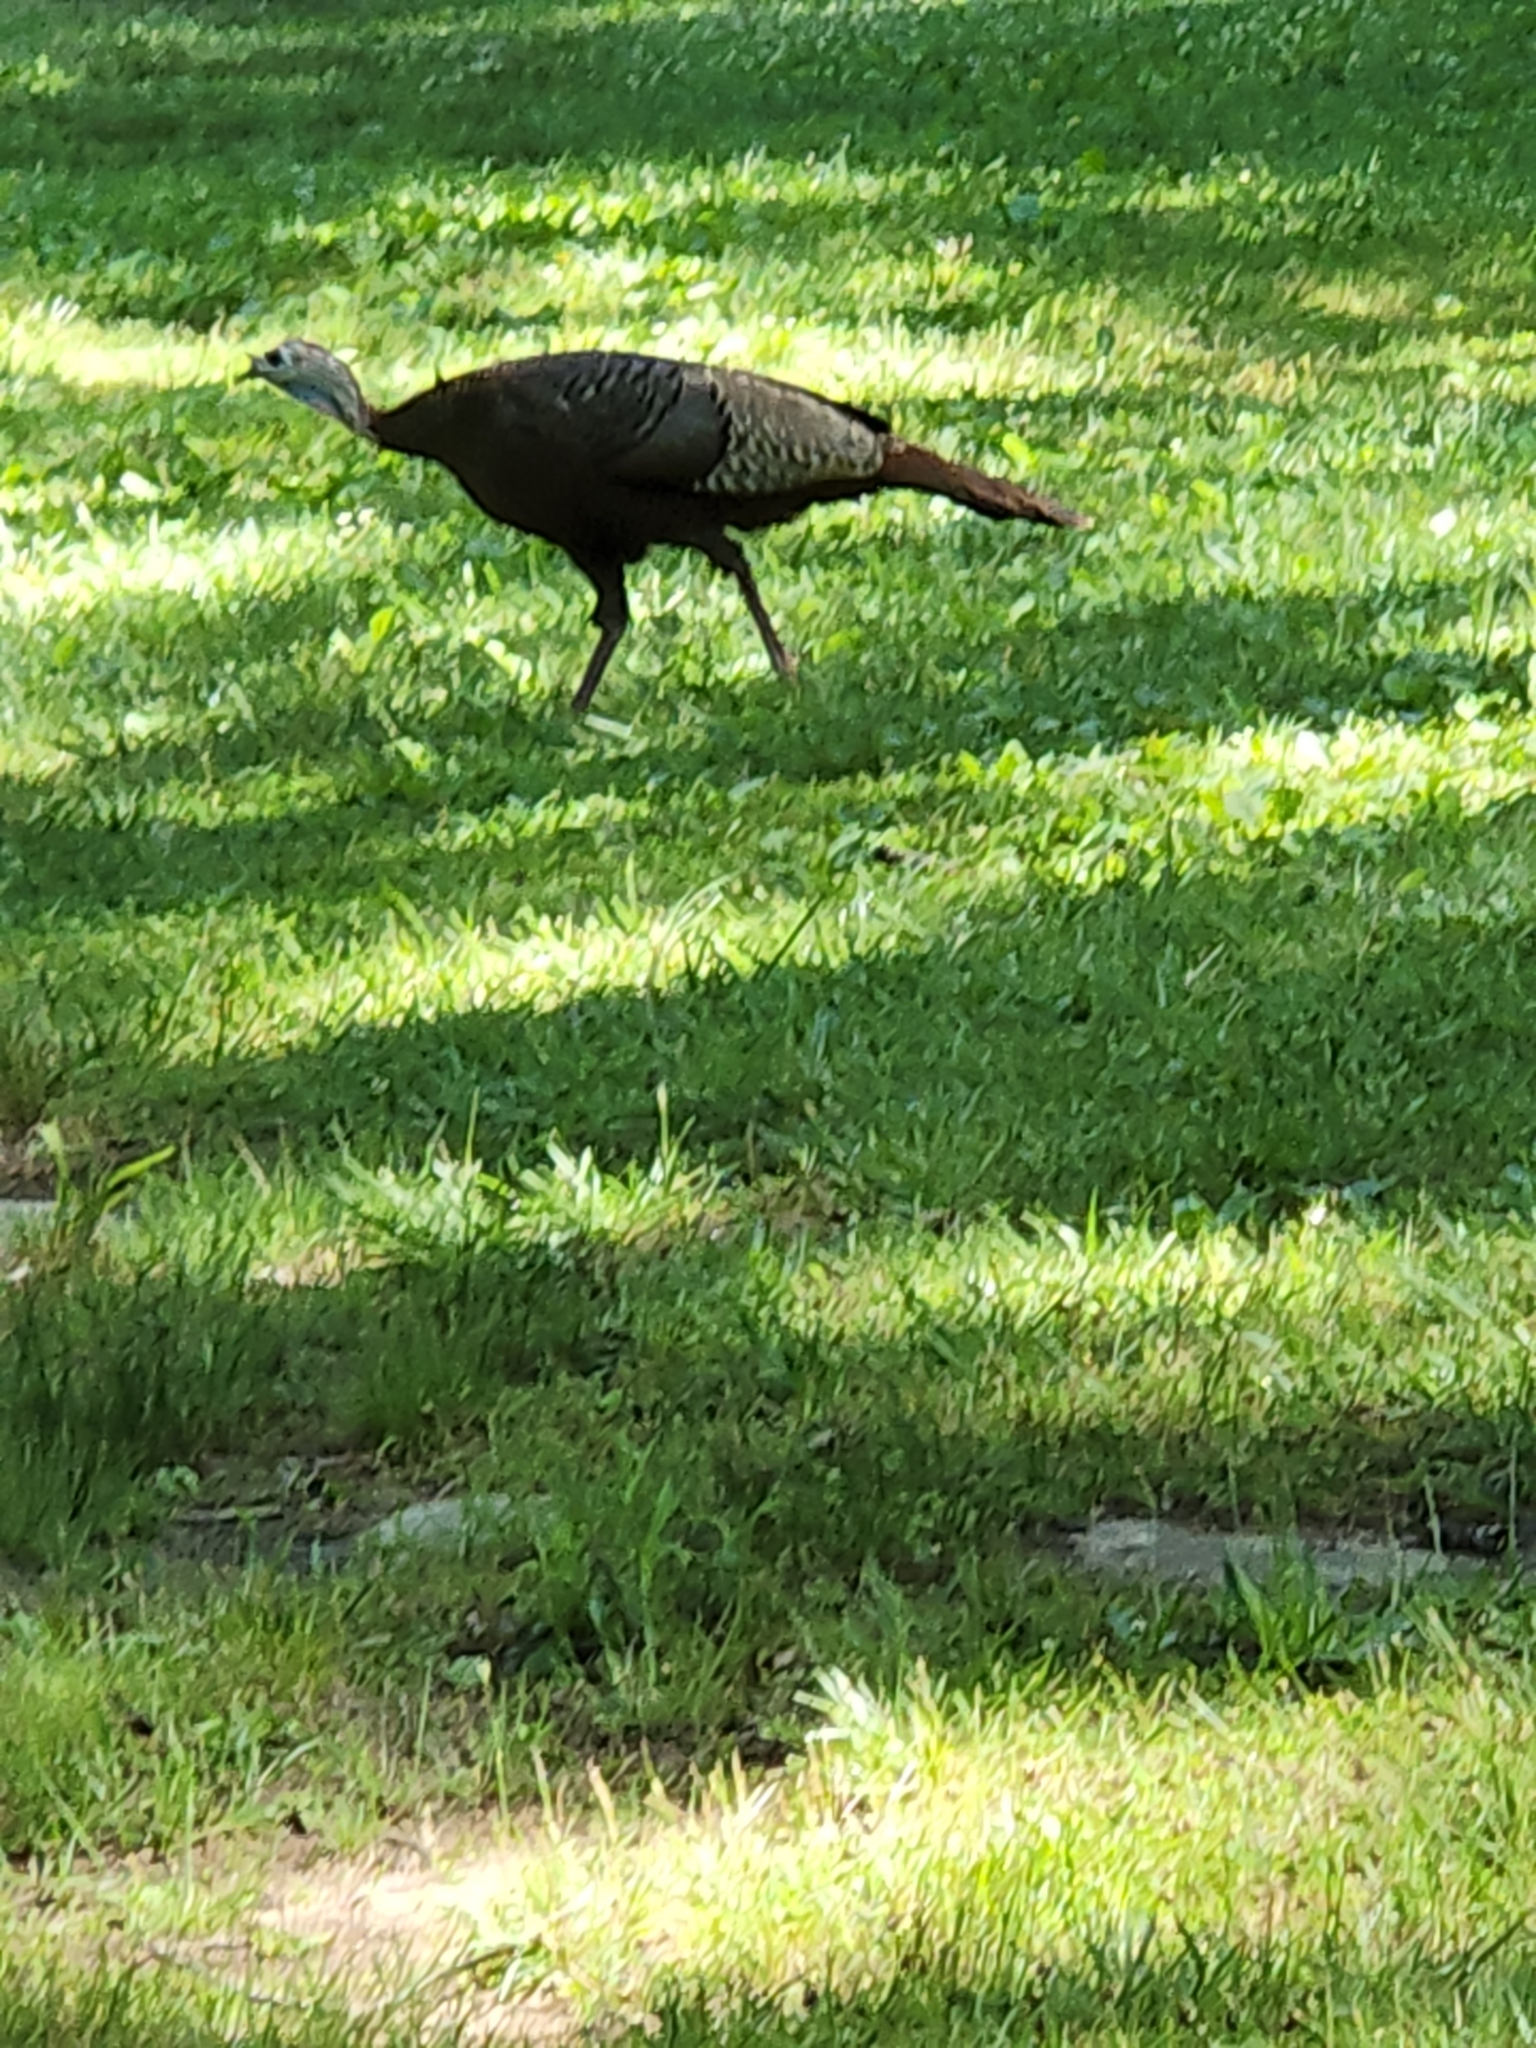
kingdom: Animalia
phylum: Chordata
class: Aves
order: Galliformes
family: Phasianidae
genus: Meleagris
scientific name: Meleagris gallopavo
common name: Wild turkey
